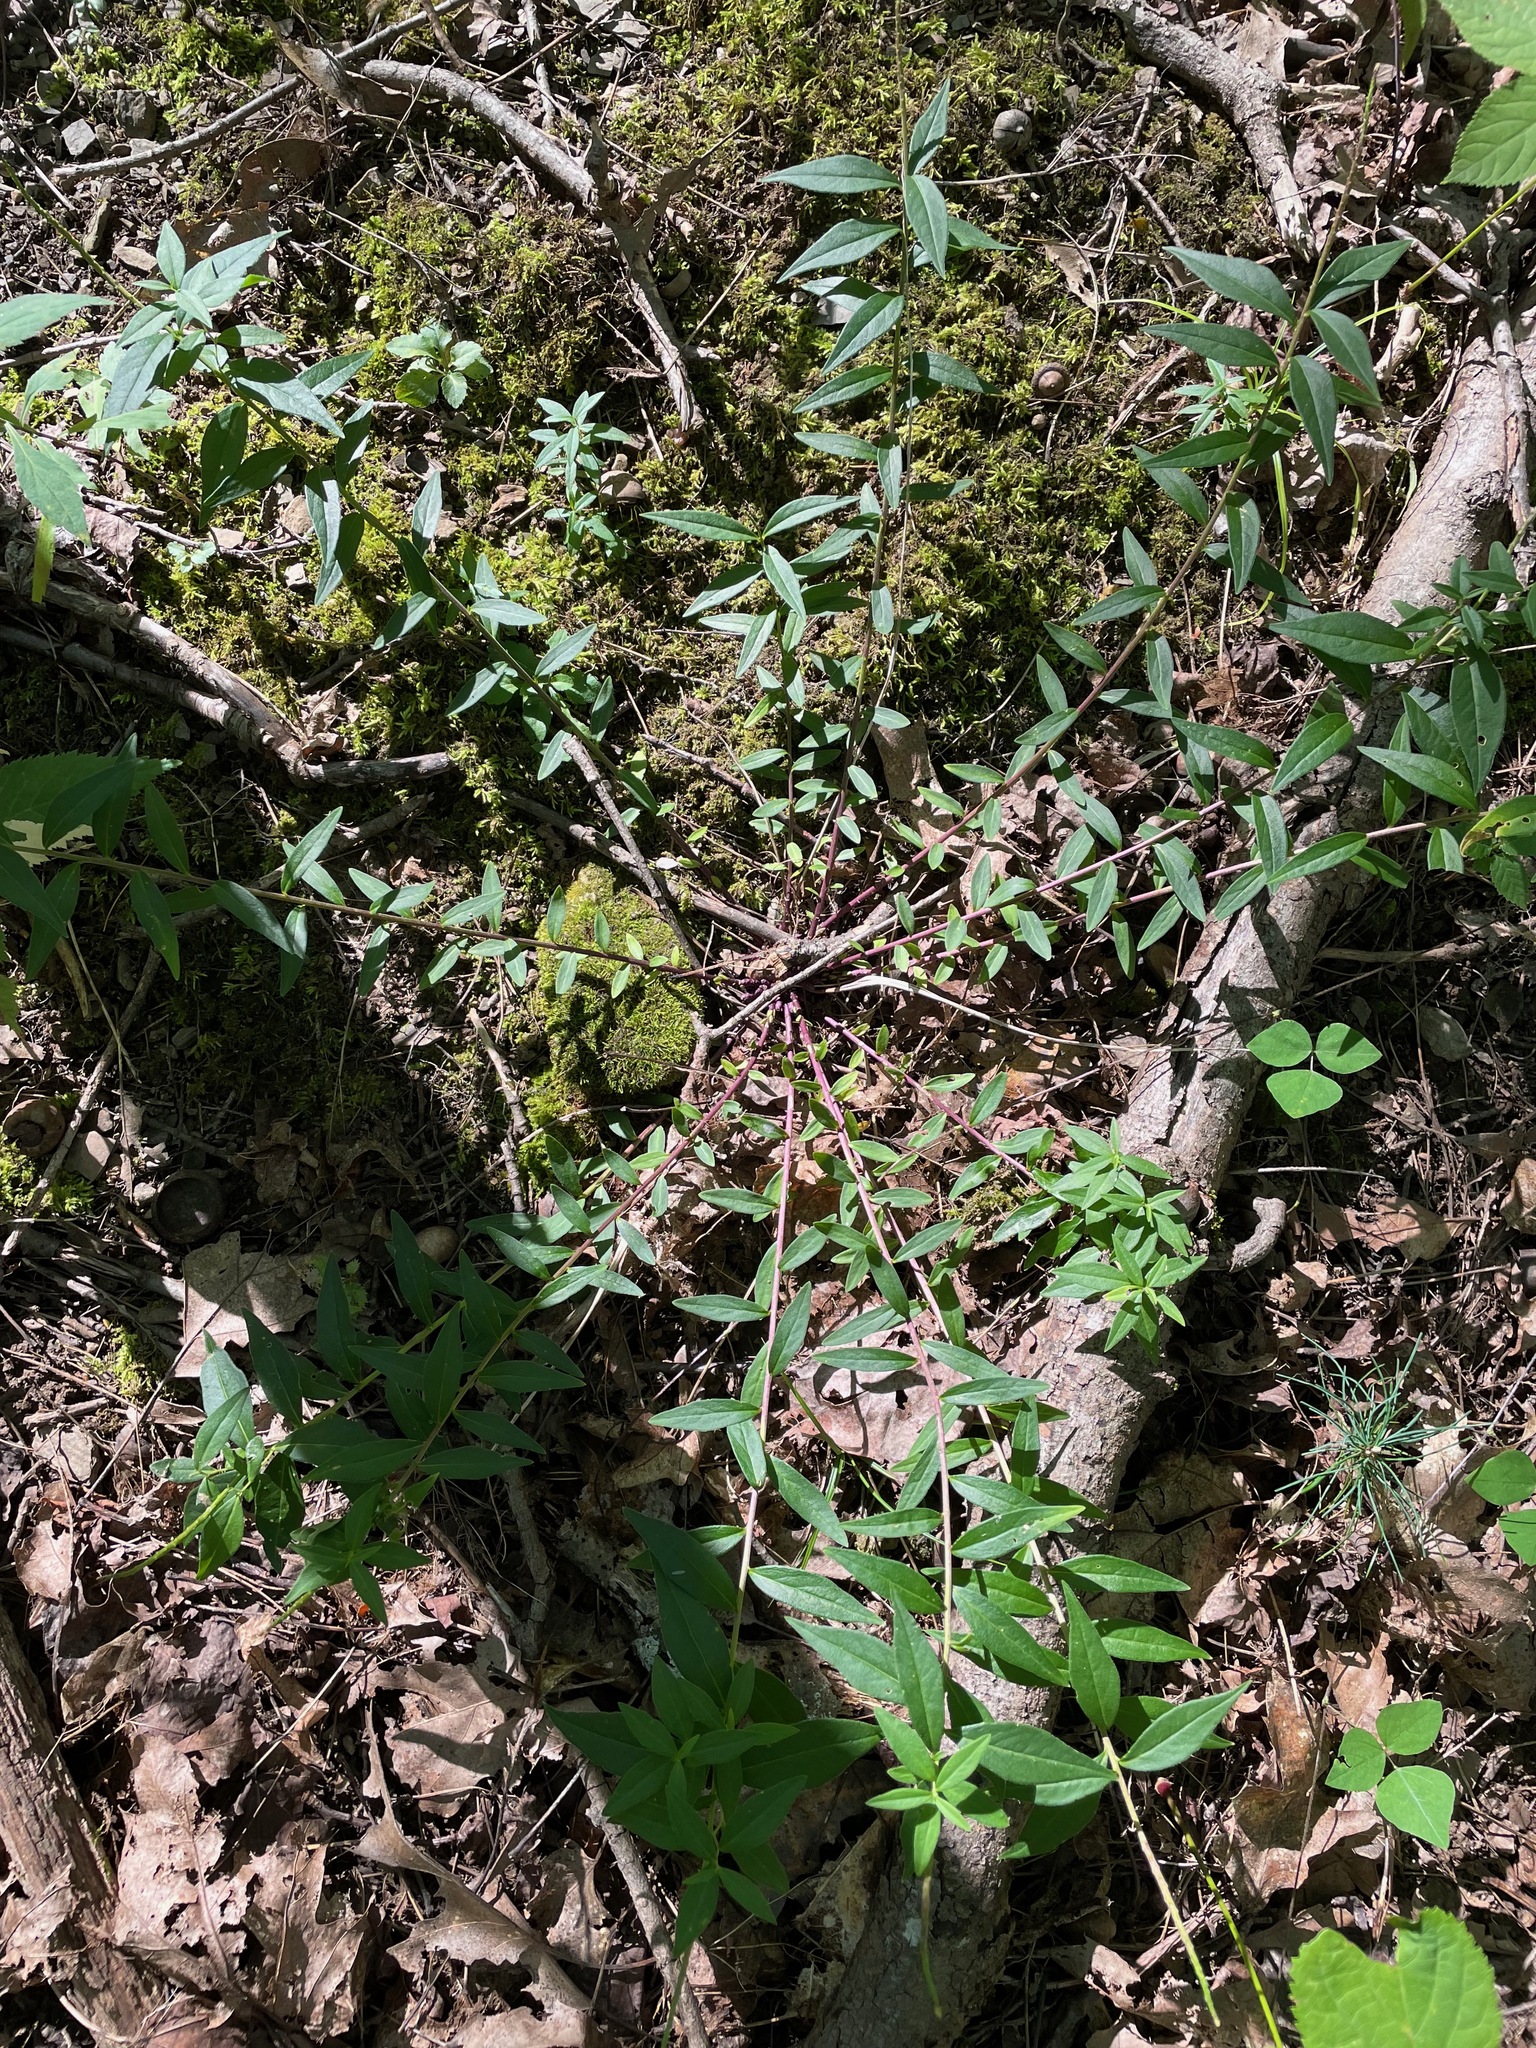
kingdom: Plantae
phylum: Tracheophyta
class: Magnoliopsida
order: Fabales
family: Polygalaceae
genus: Polygala
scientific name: Polygala senega
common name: Seneca snakeroot
